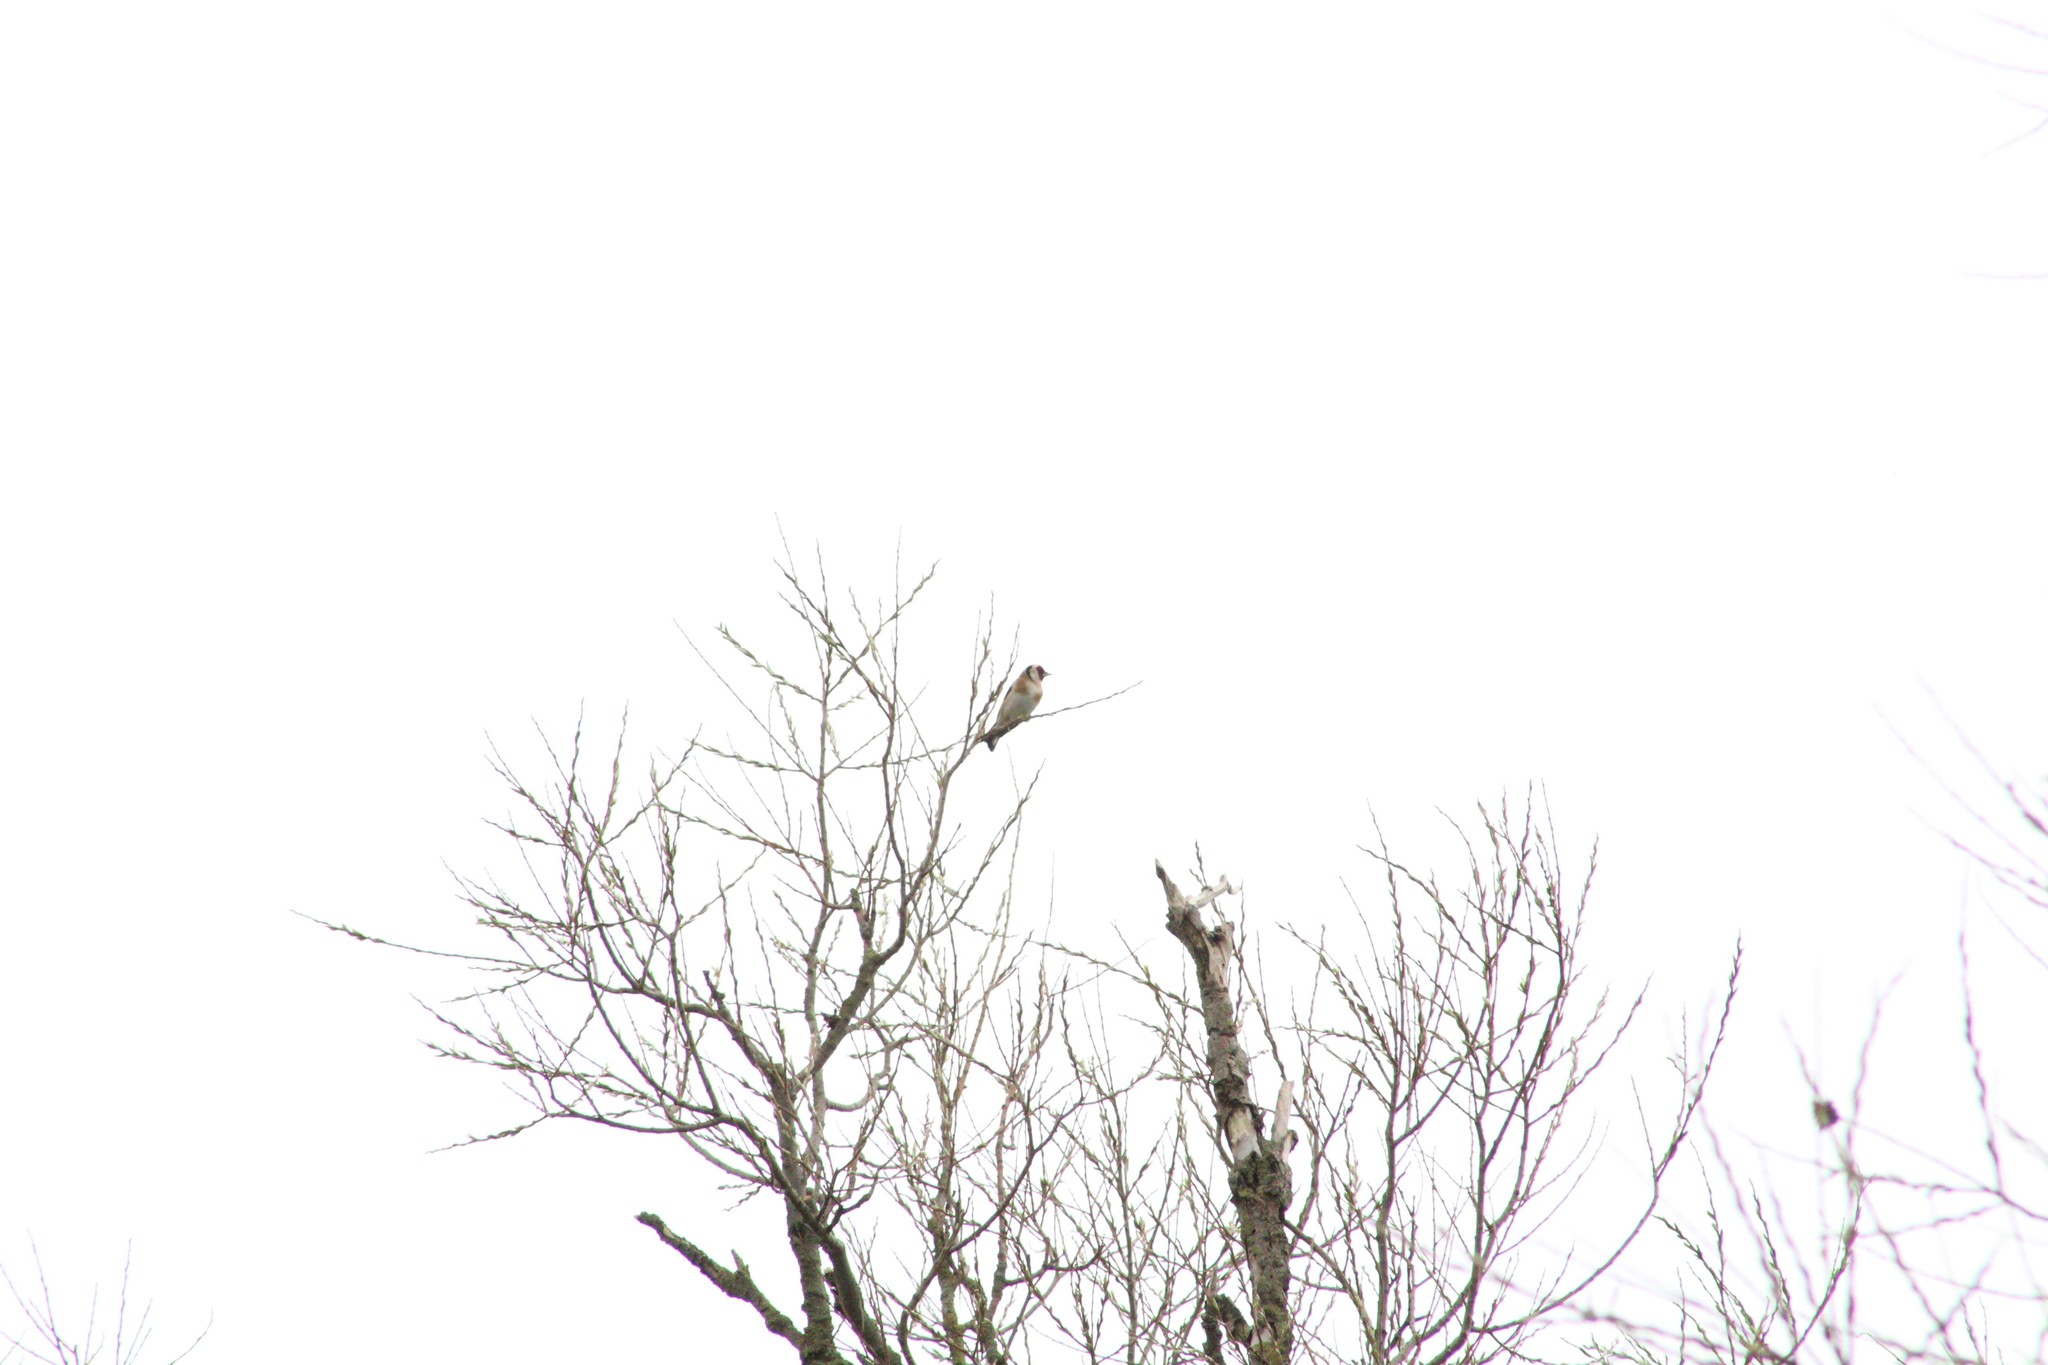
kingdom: Animalia
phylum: Chordata
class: Aves
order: Passeriformes
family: Fringillidae
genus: Carduelis
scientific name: Carduelis carduelis
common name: European goldfinch
